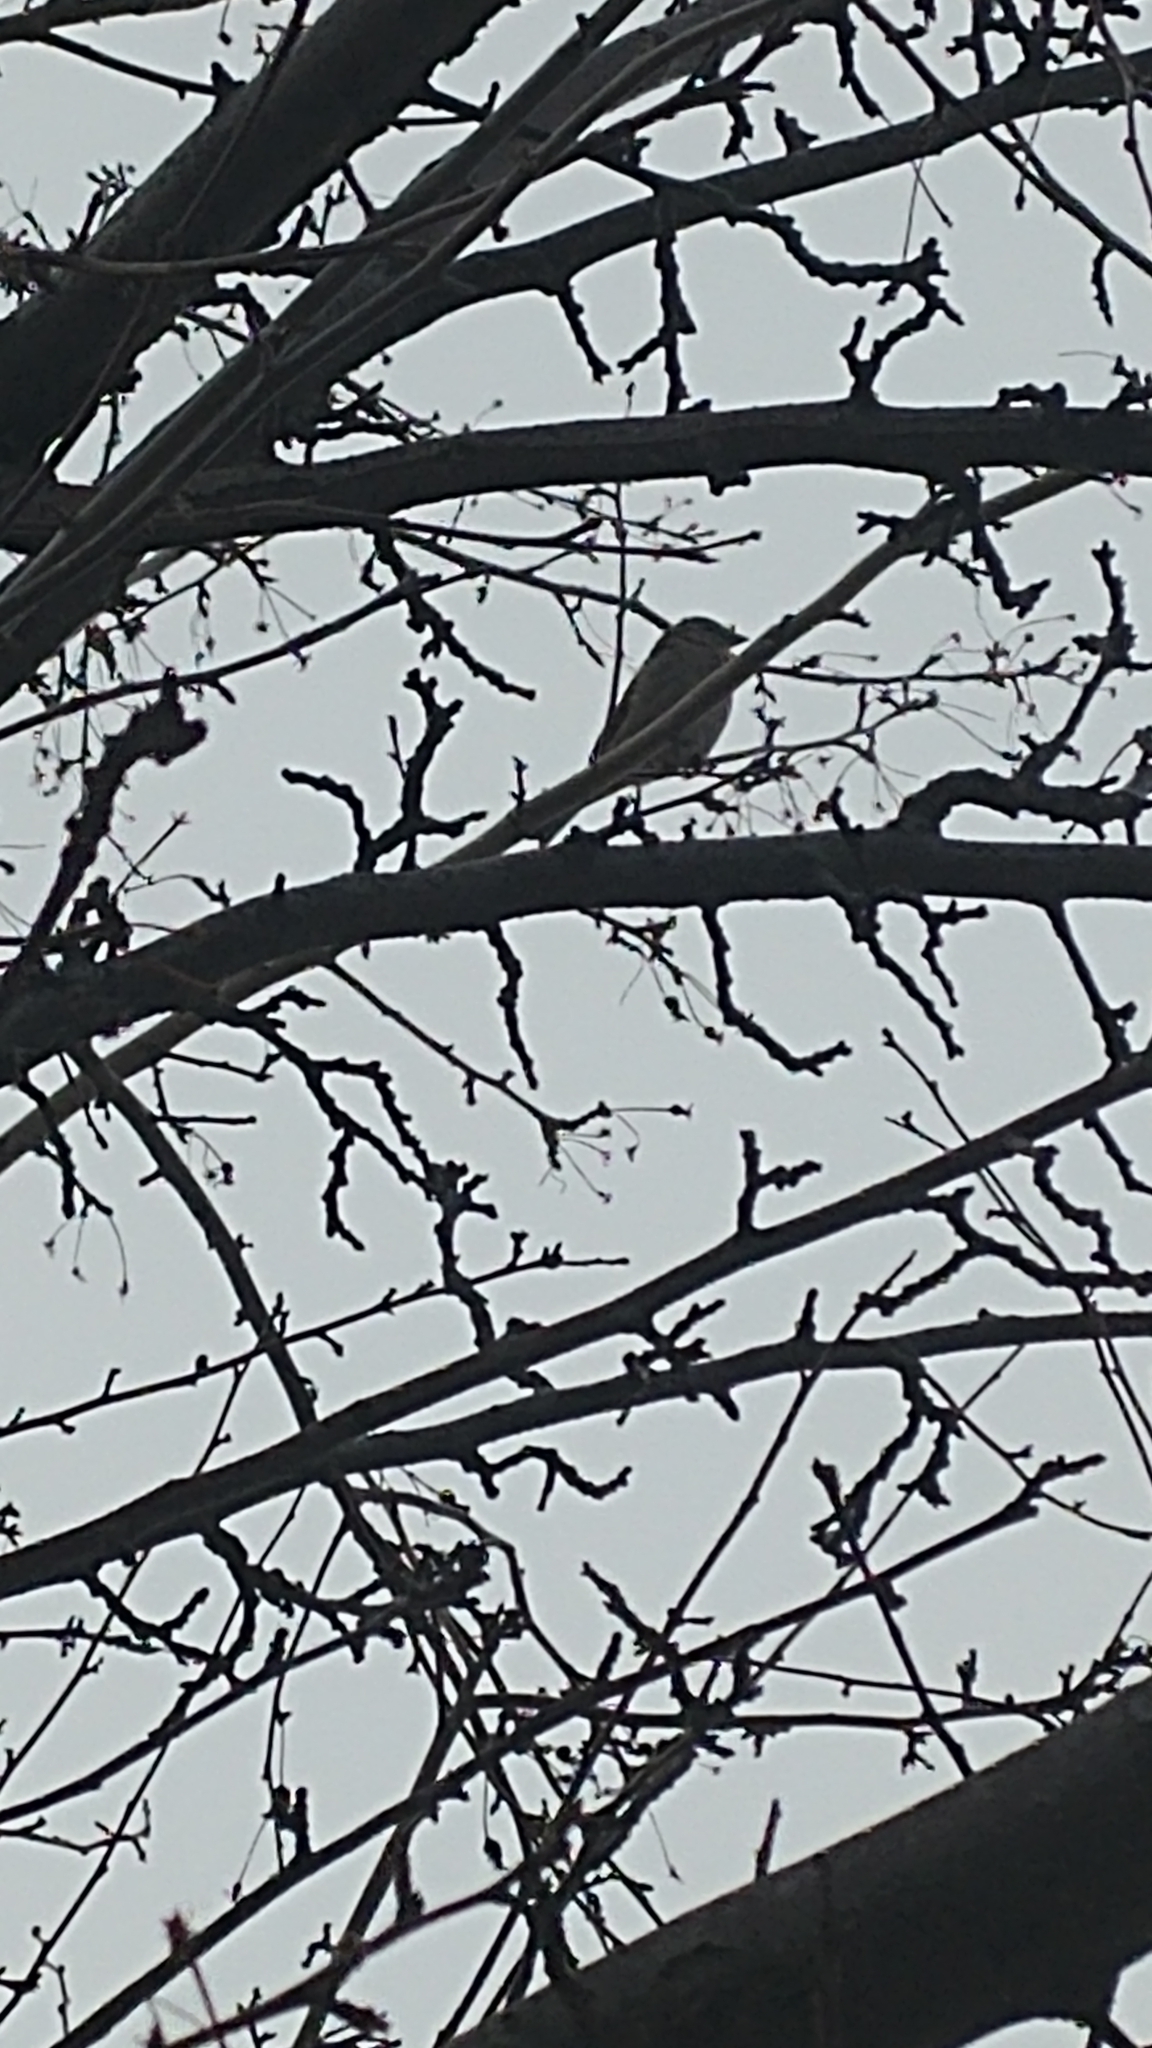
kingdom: Animalia
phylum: Chordata
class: Aves
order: Passeriformes
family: Passeridae
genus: Passer
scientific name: Passer domesticus
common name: House sparrow
